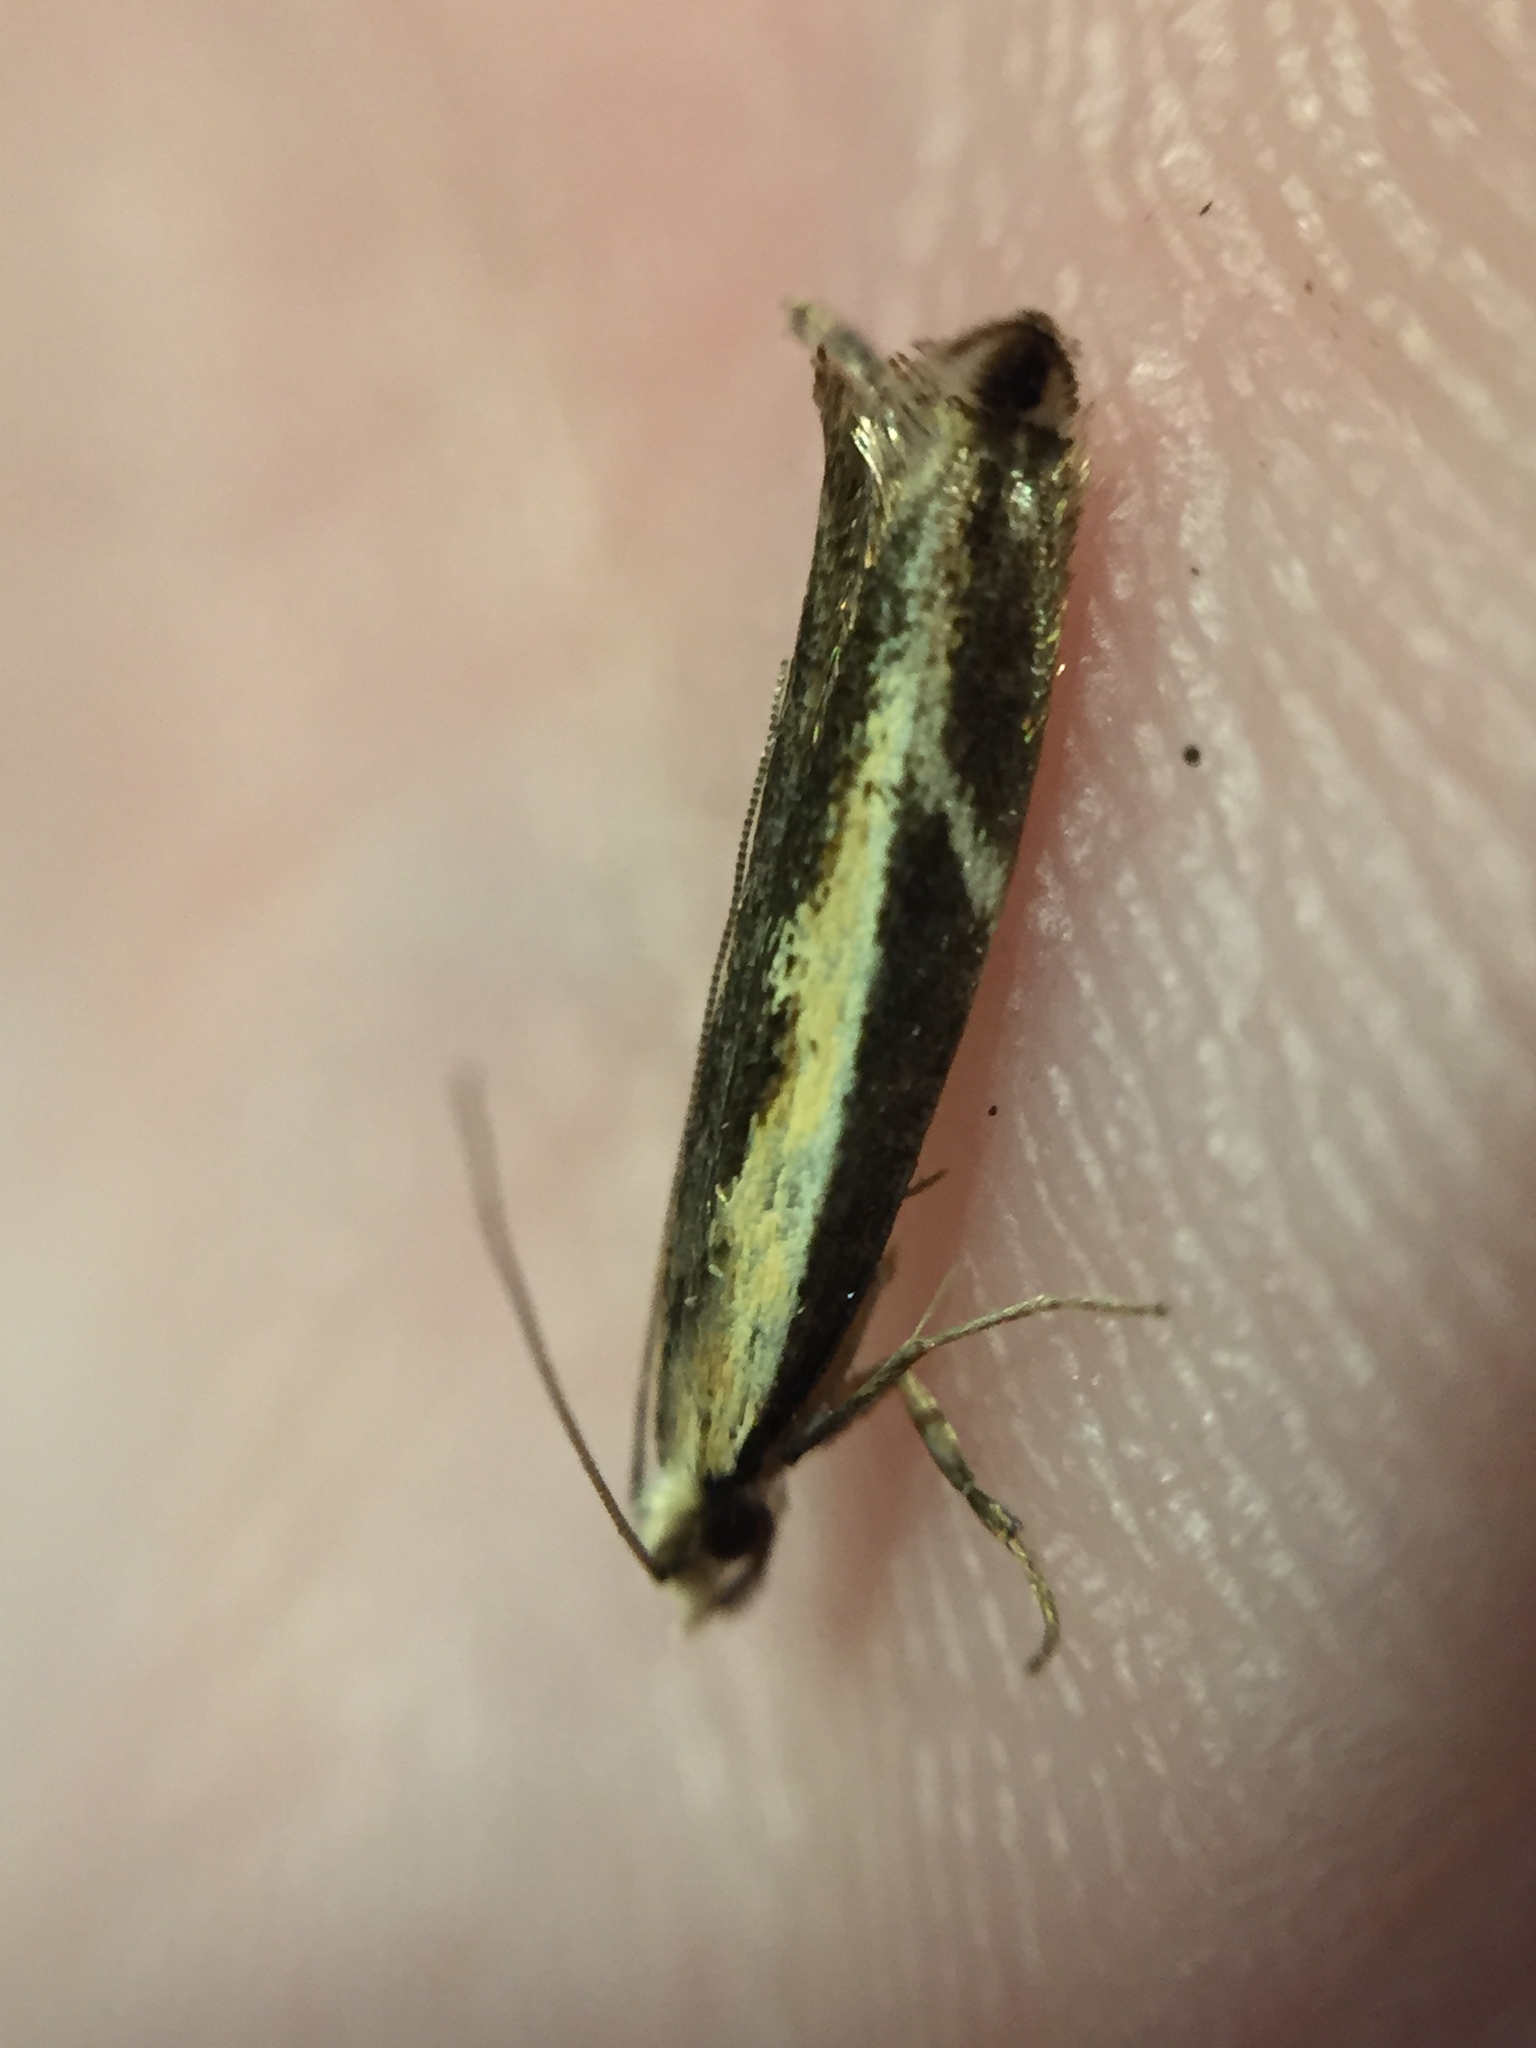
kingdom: Animalia
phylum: Arthropoda
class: Insecta
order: Lepidoptera
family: Tineidae
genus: Erechthias
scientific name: Erechthias terminella
